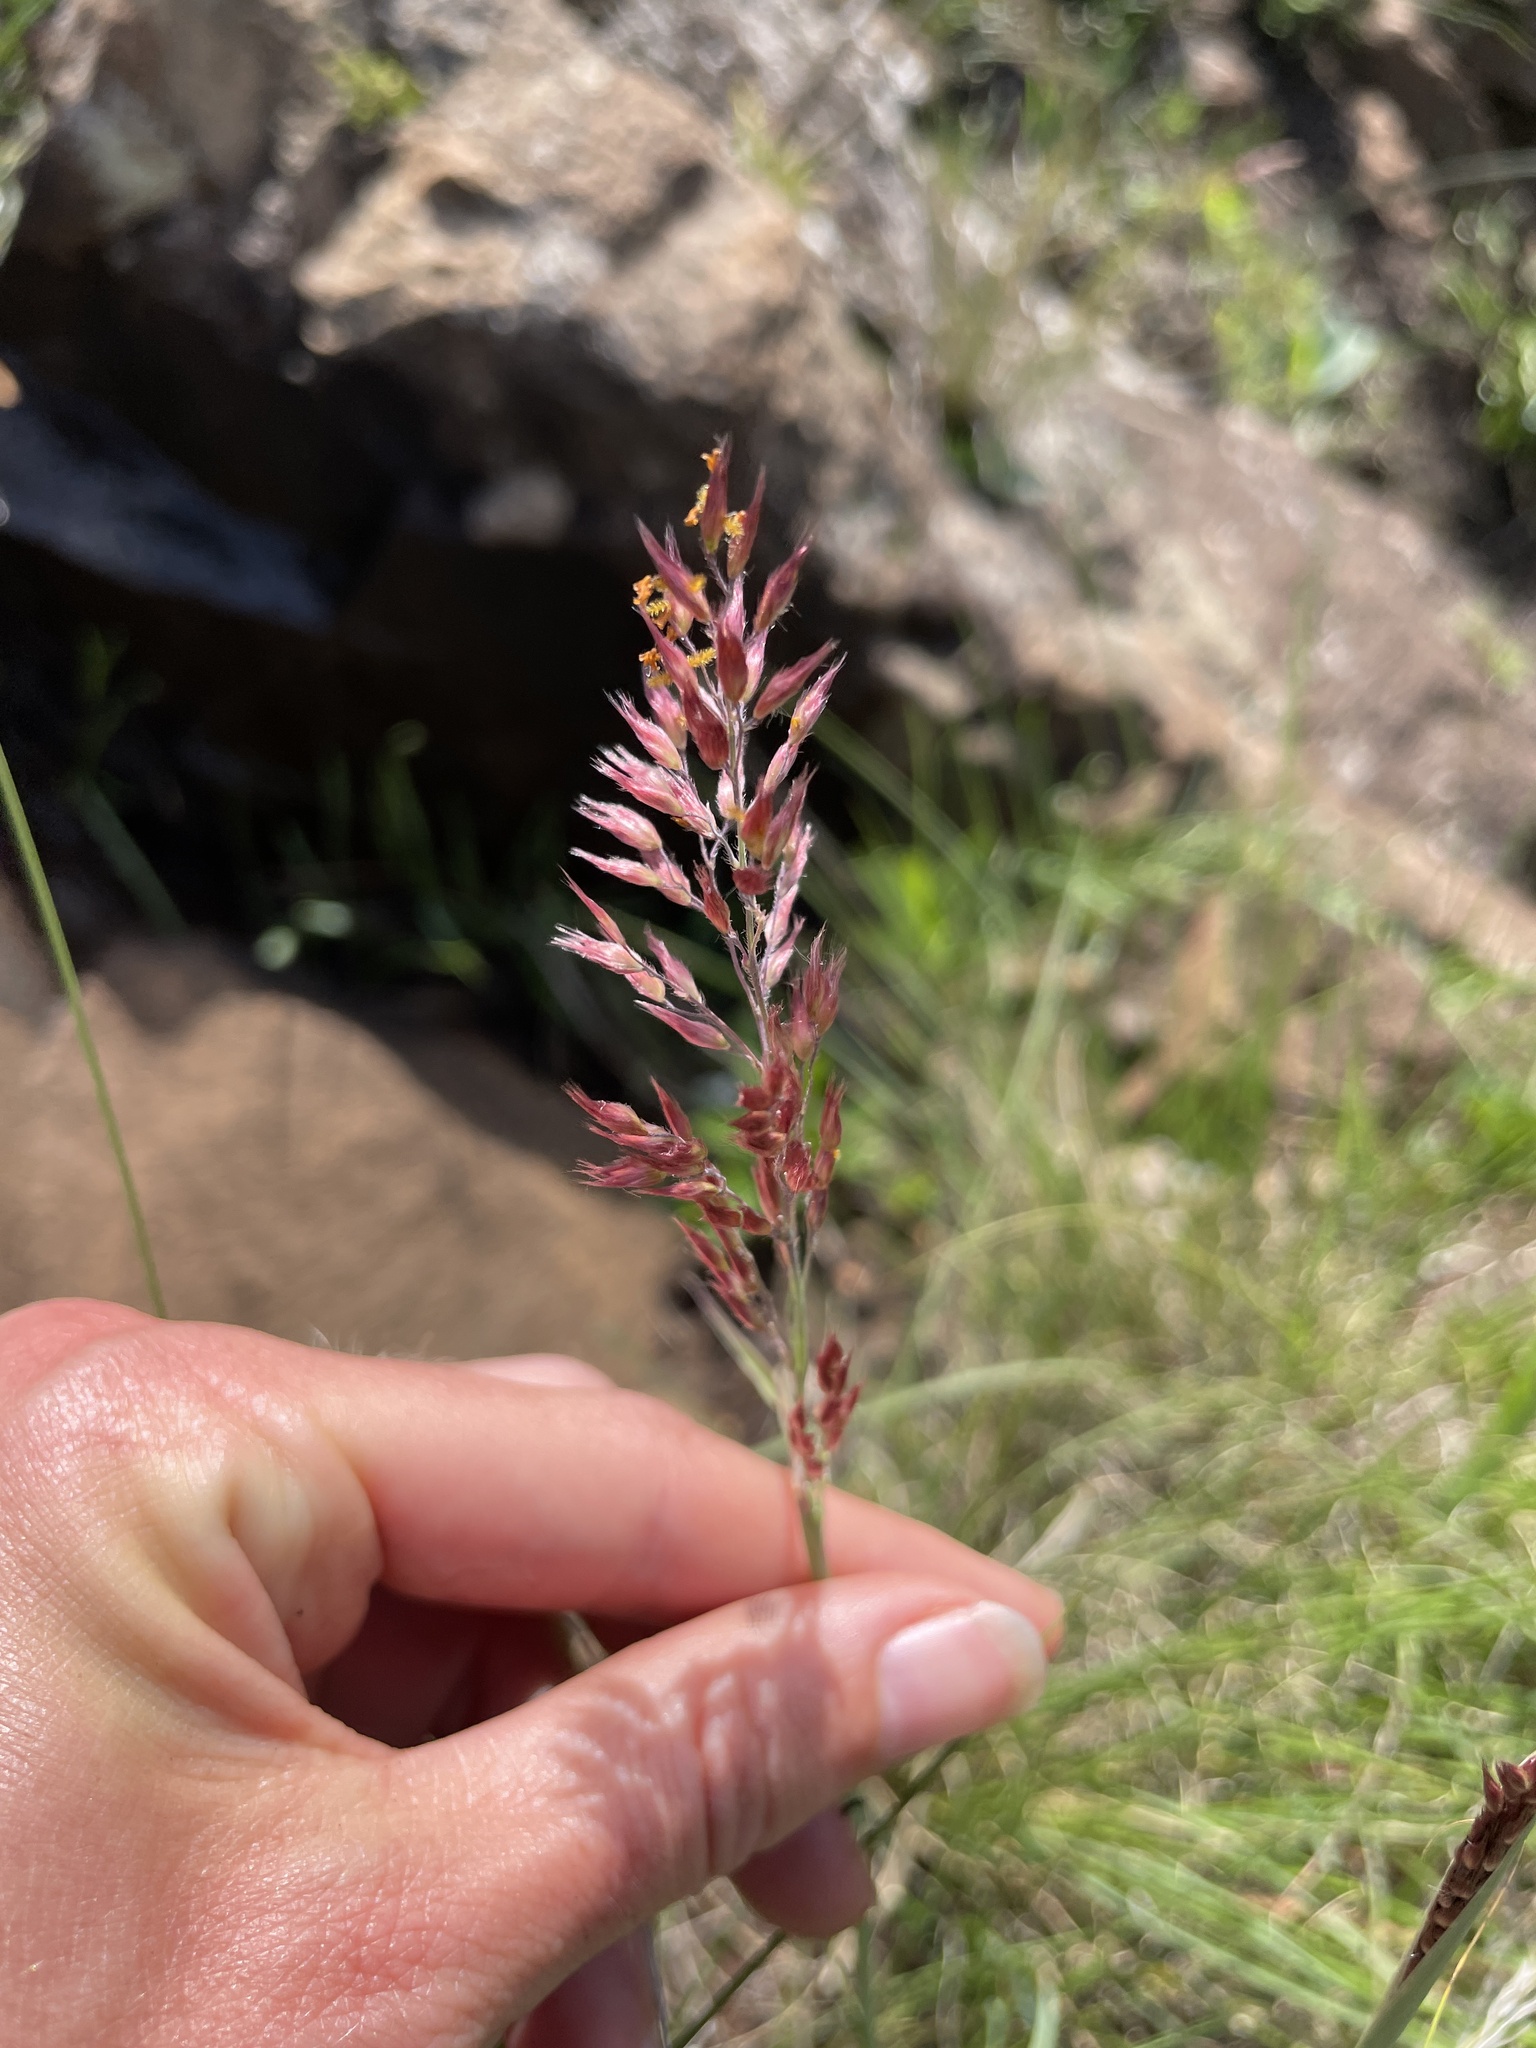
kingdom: Plantae
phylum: Tracheophyta
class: Liliopsida
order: Poales
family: Poaceae
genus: Melinis
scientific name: Melinis nerviglumis
